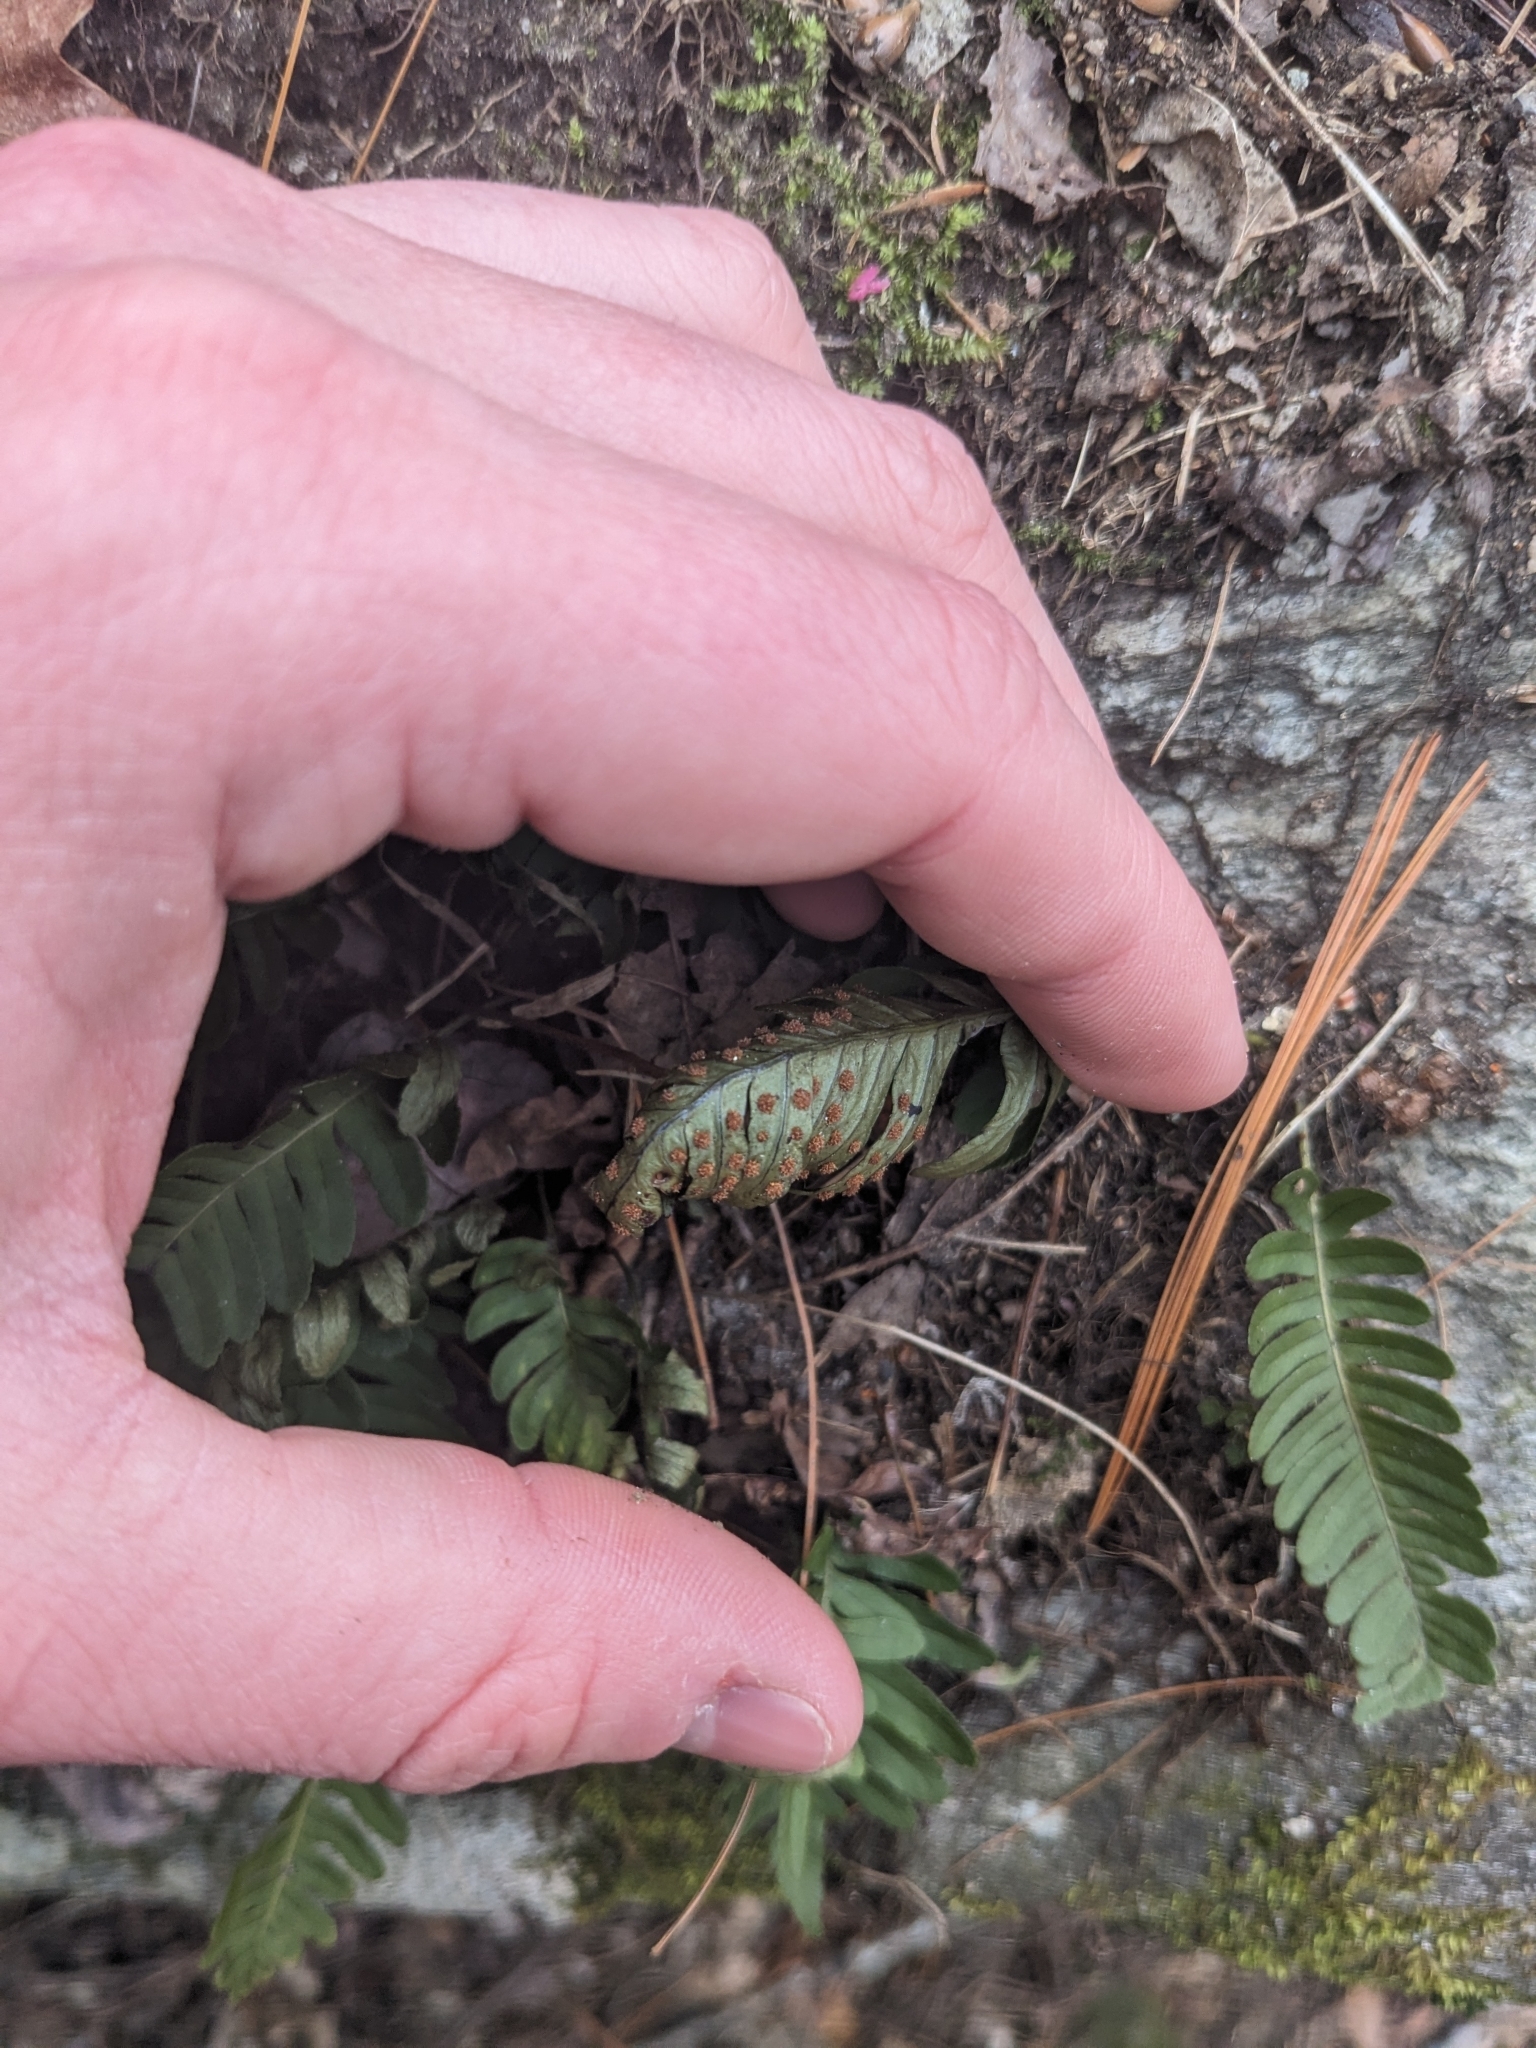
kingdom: Plantae
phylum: Tracheophyta
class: Polypodiopsida
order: Polypodiales
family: Polypodiaceae
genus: Polypodium
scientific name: Polypodium virginianum
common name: American wall fern
